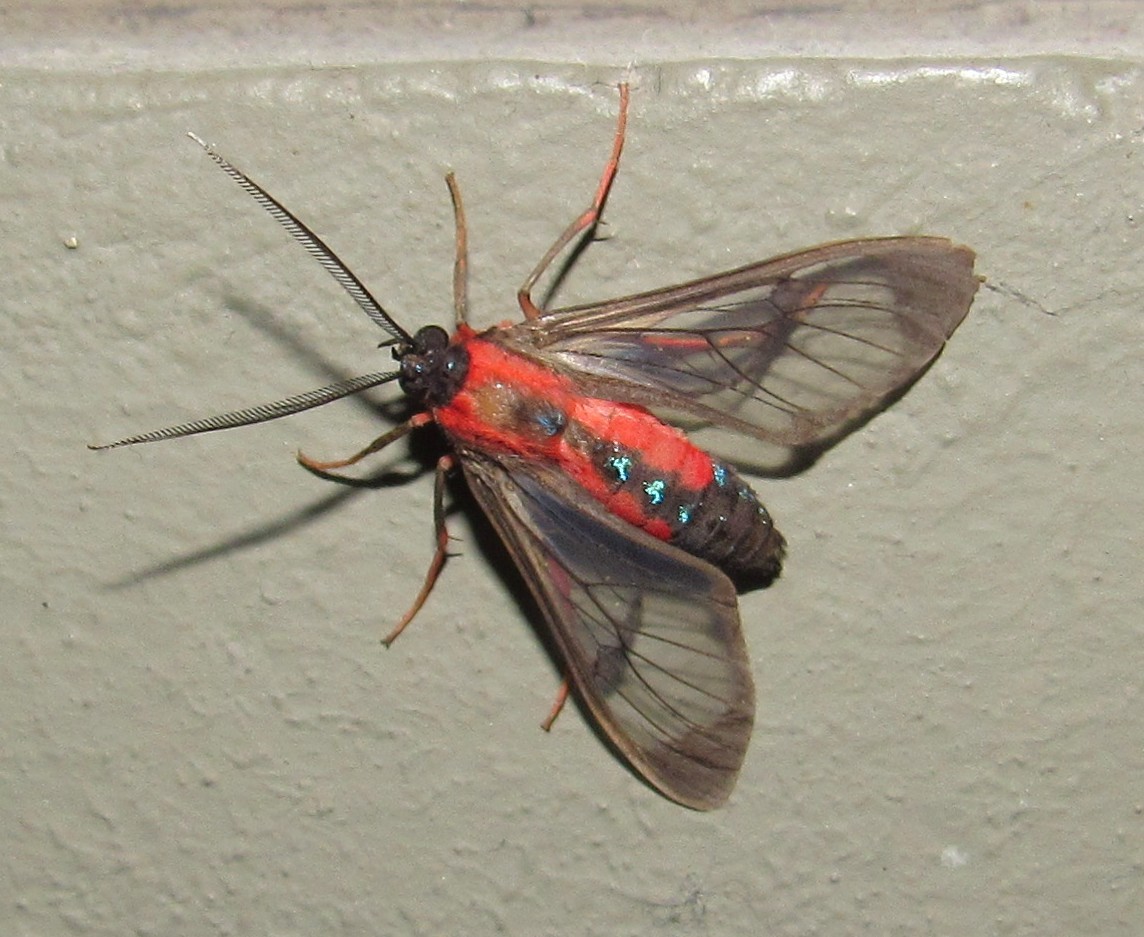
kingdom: Animalia
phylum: Arthropoda
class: Insecta
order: Lepidoptera
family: Erebidae
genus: Cosmosoma
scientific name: Cosmosoma auge
